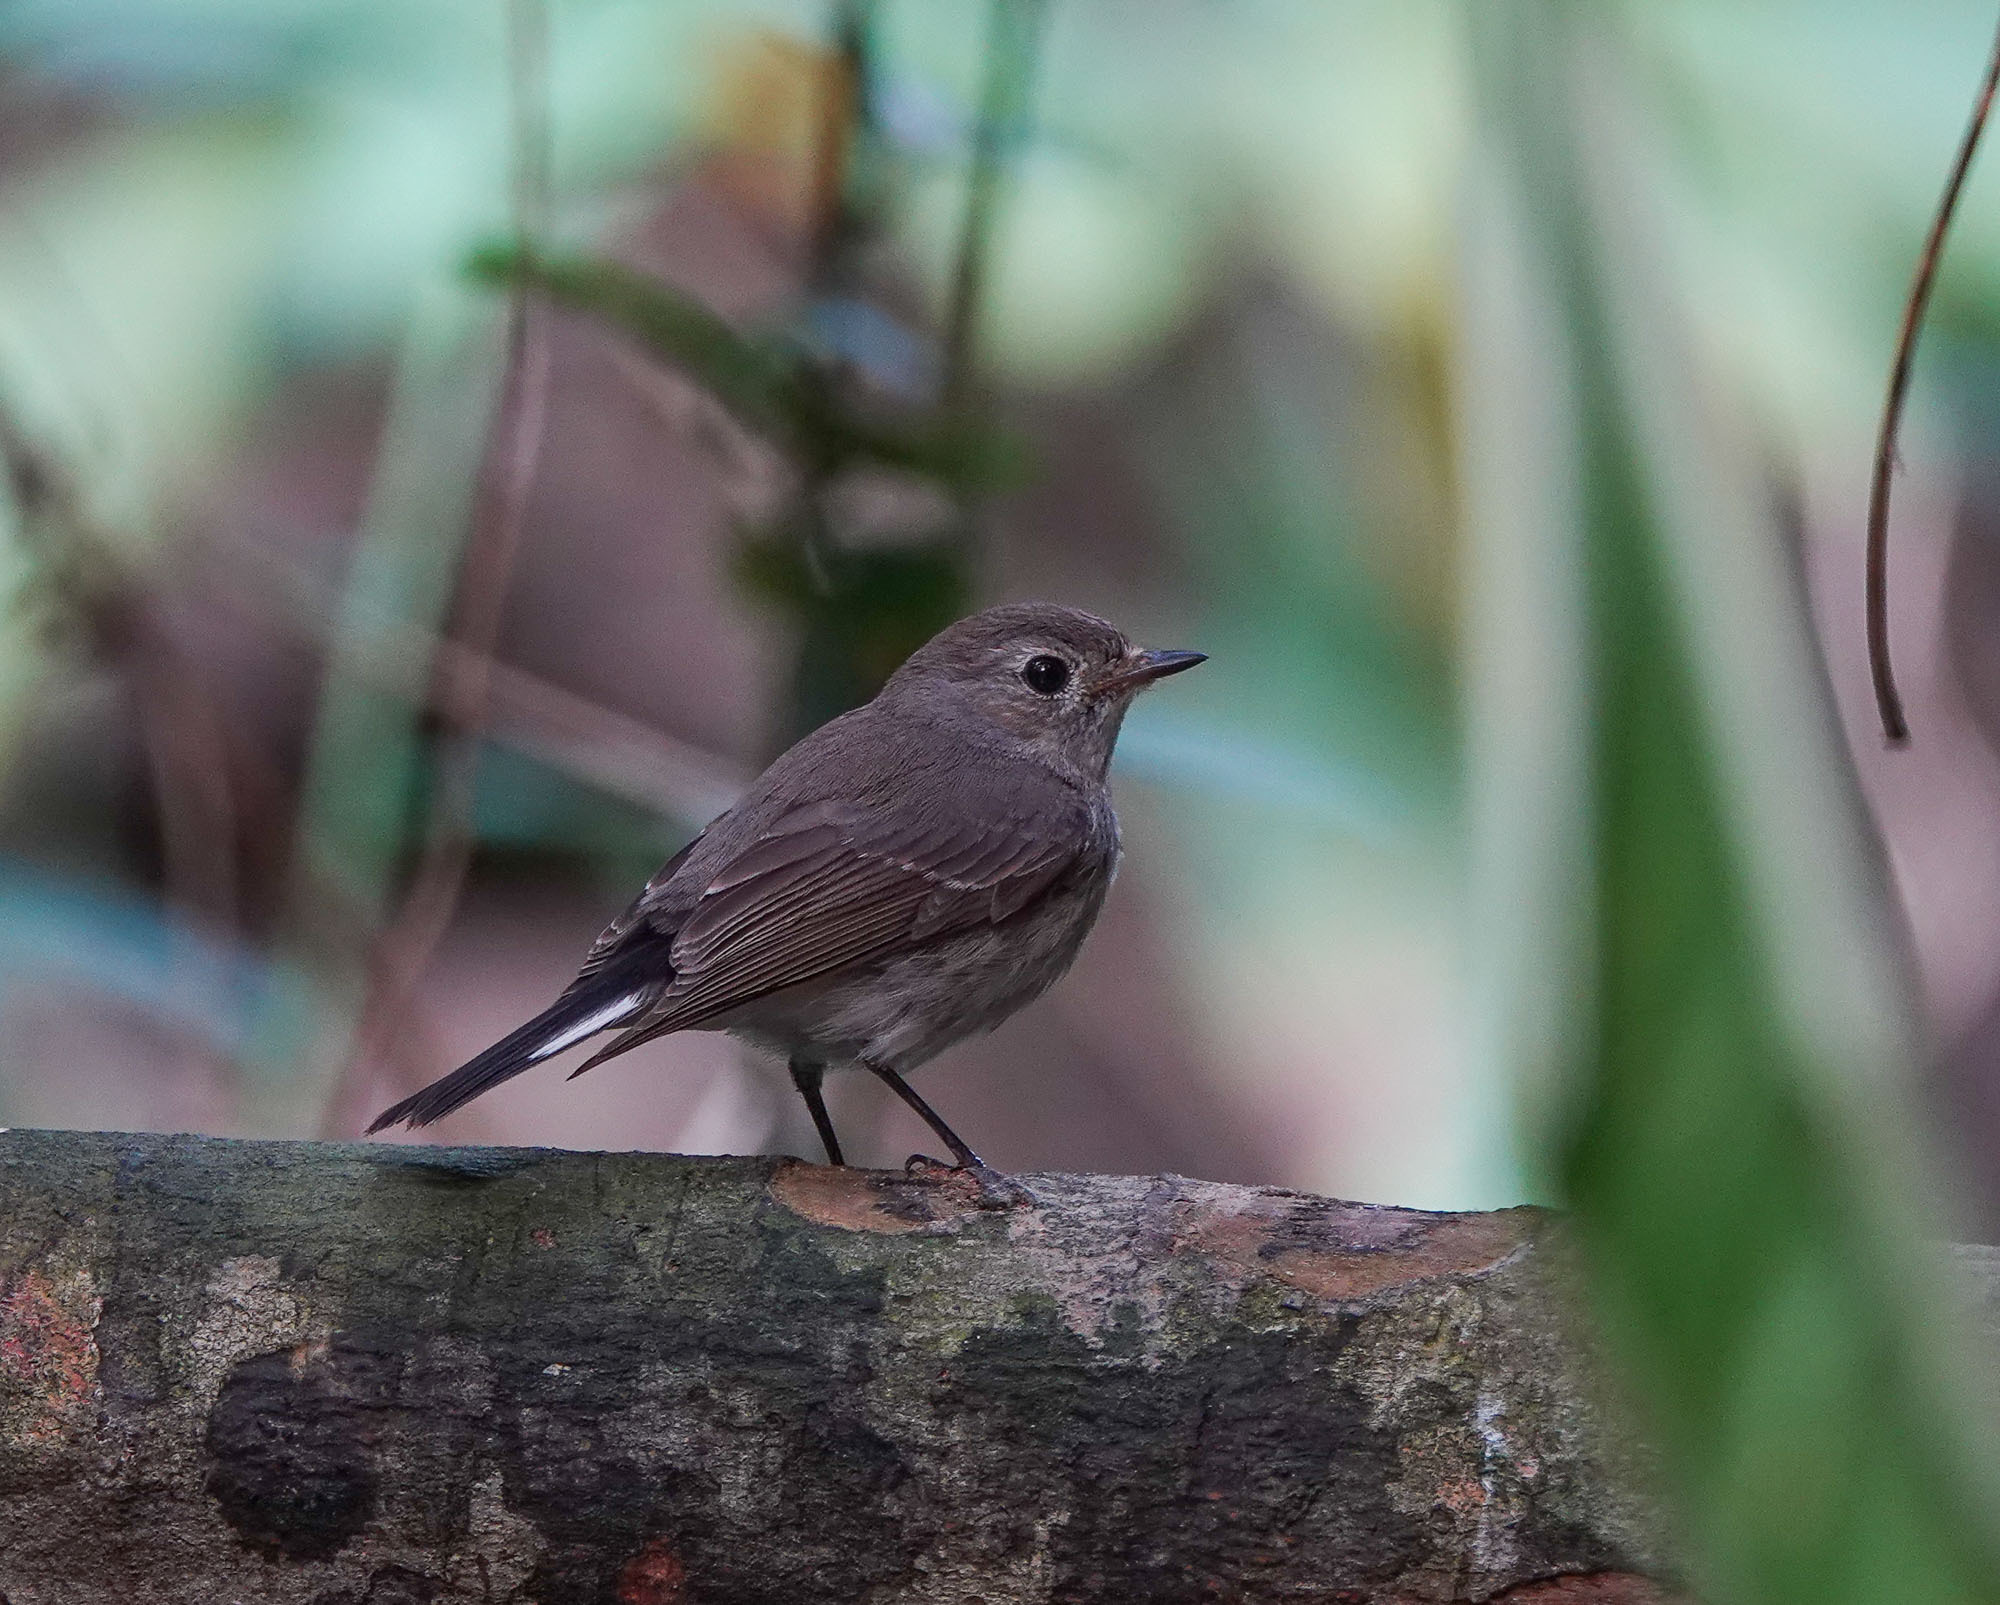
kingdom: Animalia
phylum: Chordata
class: Aves
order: Passeriformes
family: Muscicapidae
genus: Ficedula
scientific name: Ficedula albicilla
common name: Taiga flycatcher
